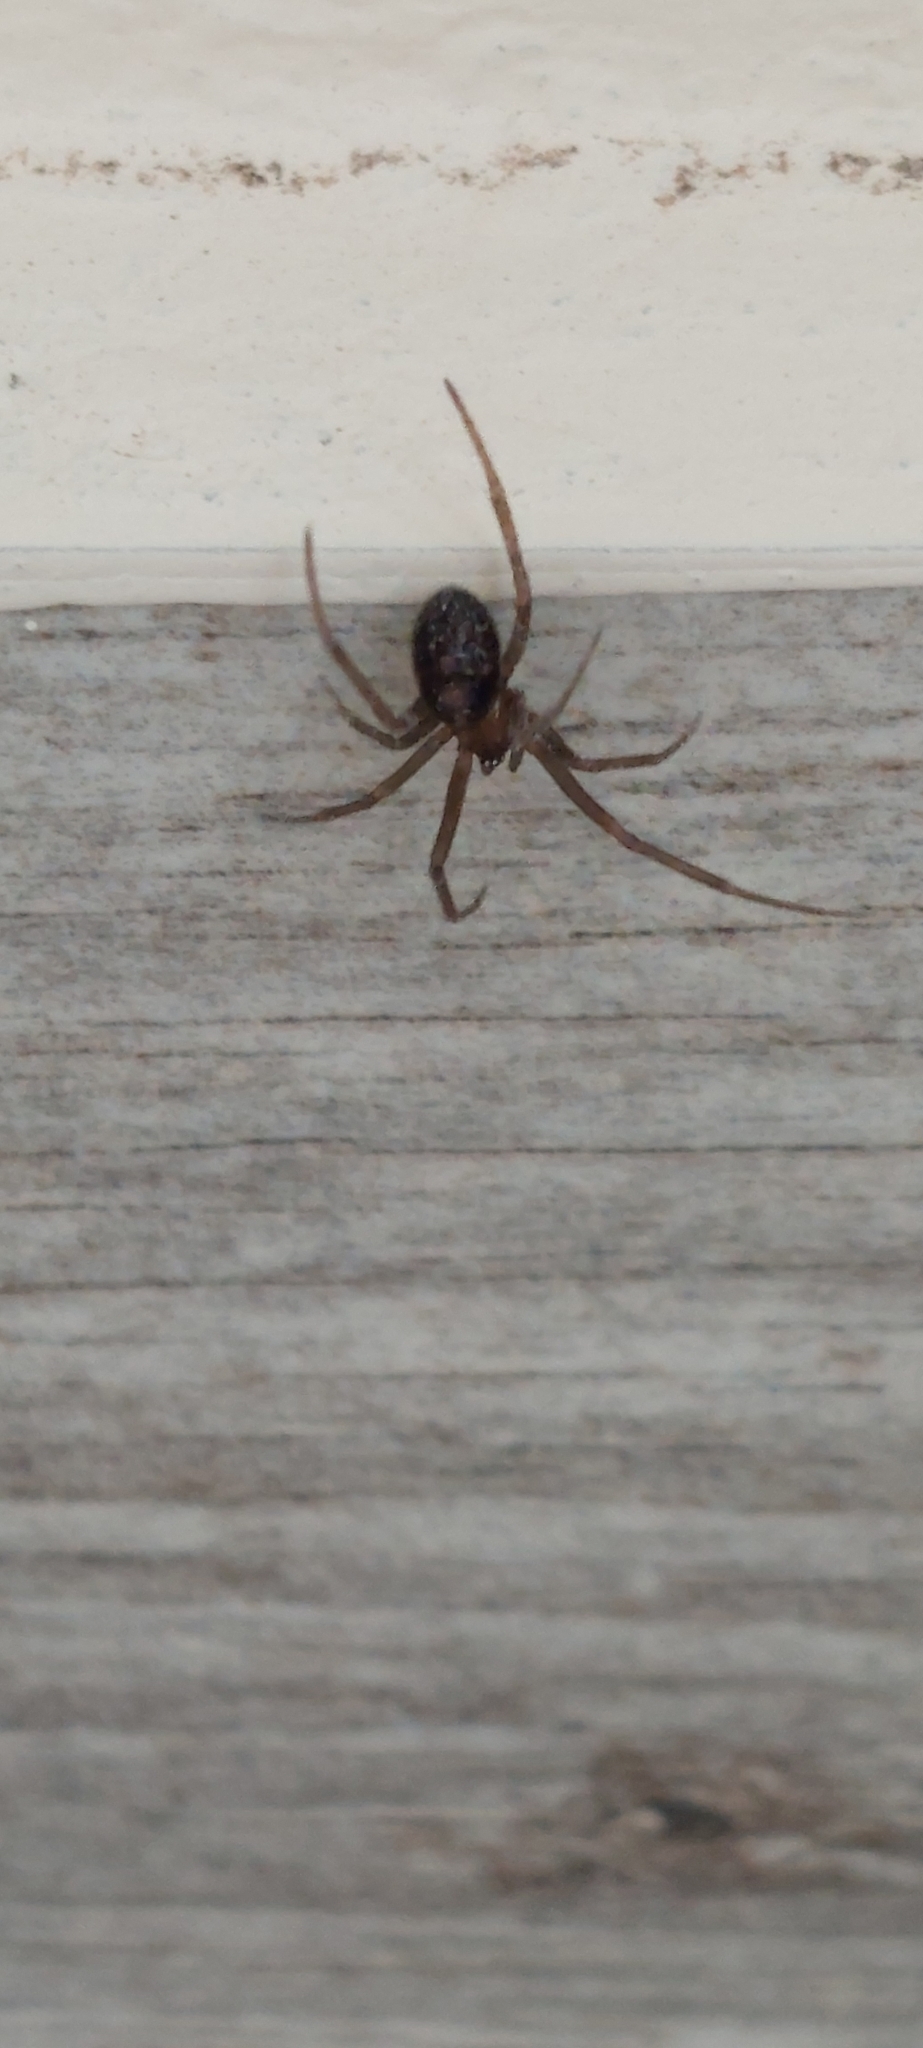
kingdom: Animalia
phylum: Arthropoda
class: Arachnida
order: Araneae
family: Theridiidae
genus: Steatoda
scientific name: Steatoda grossa
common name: False black widow
